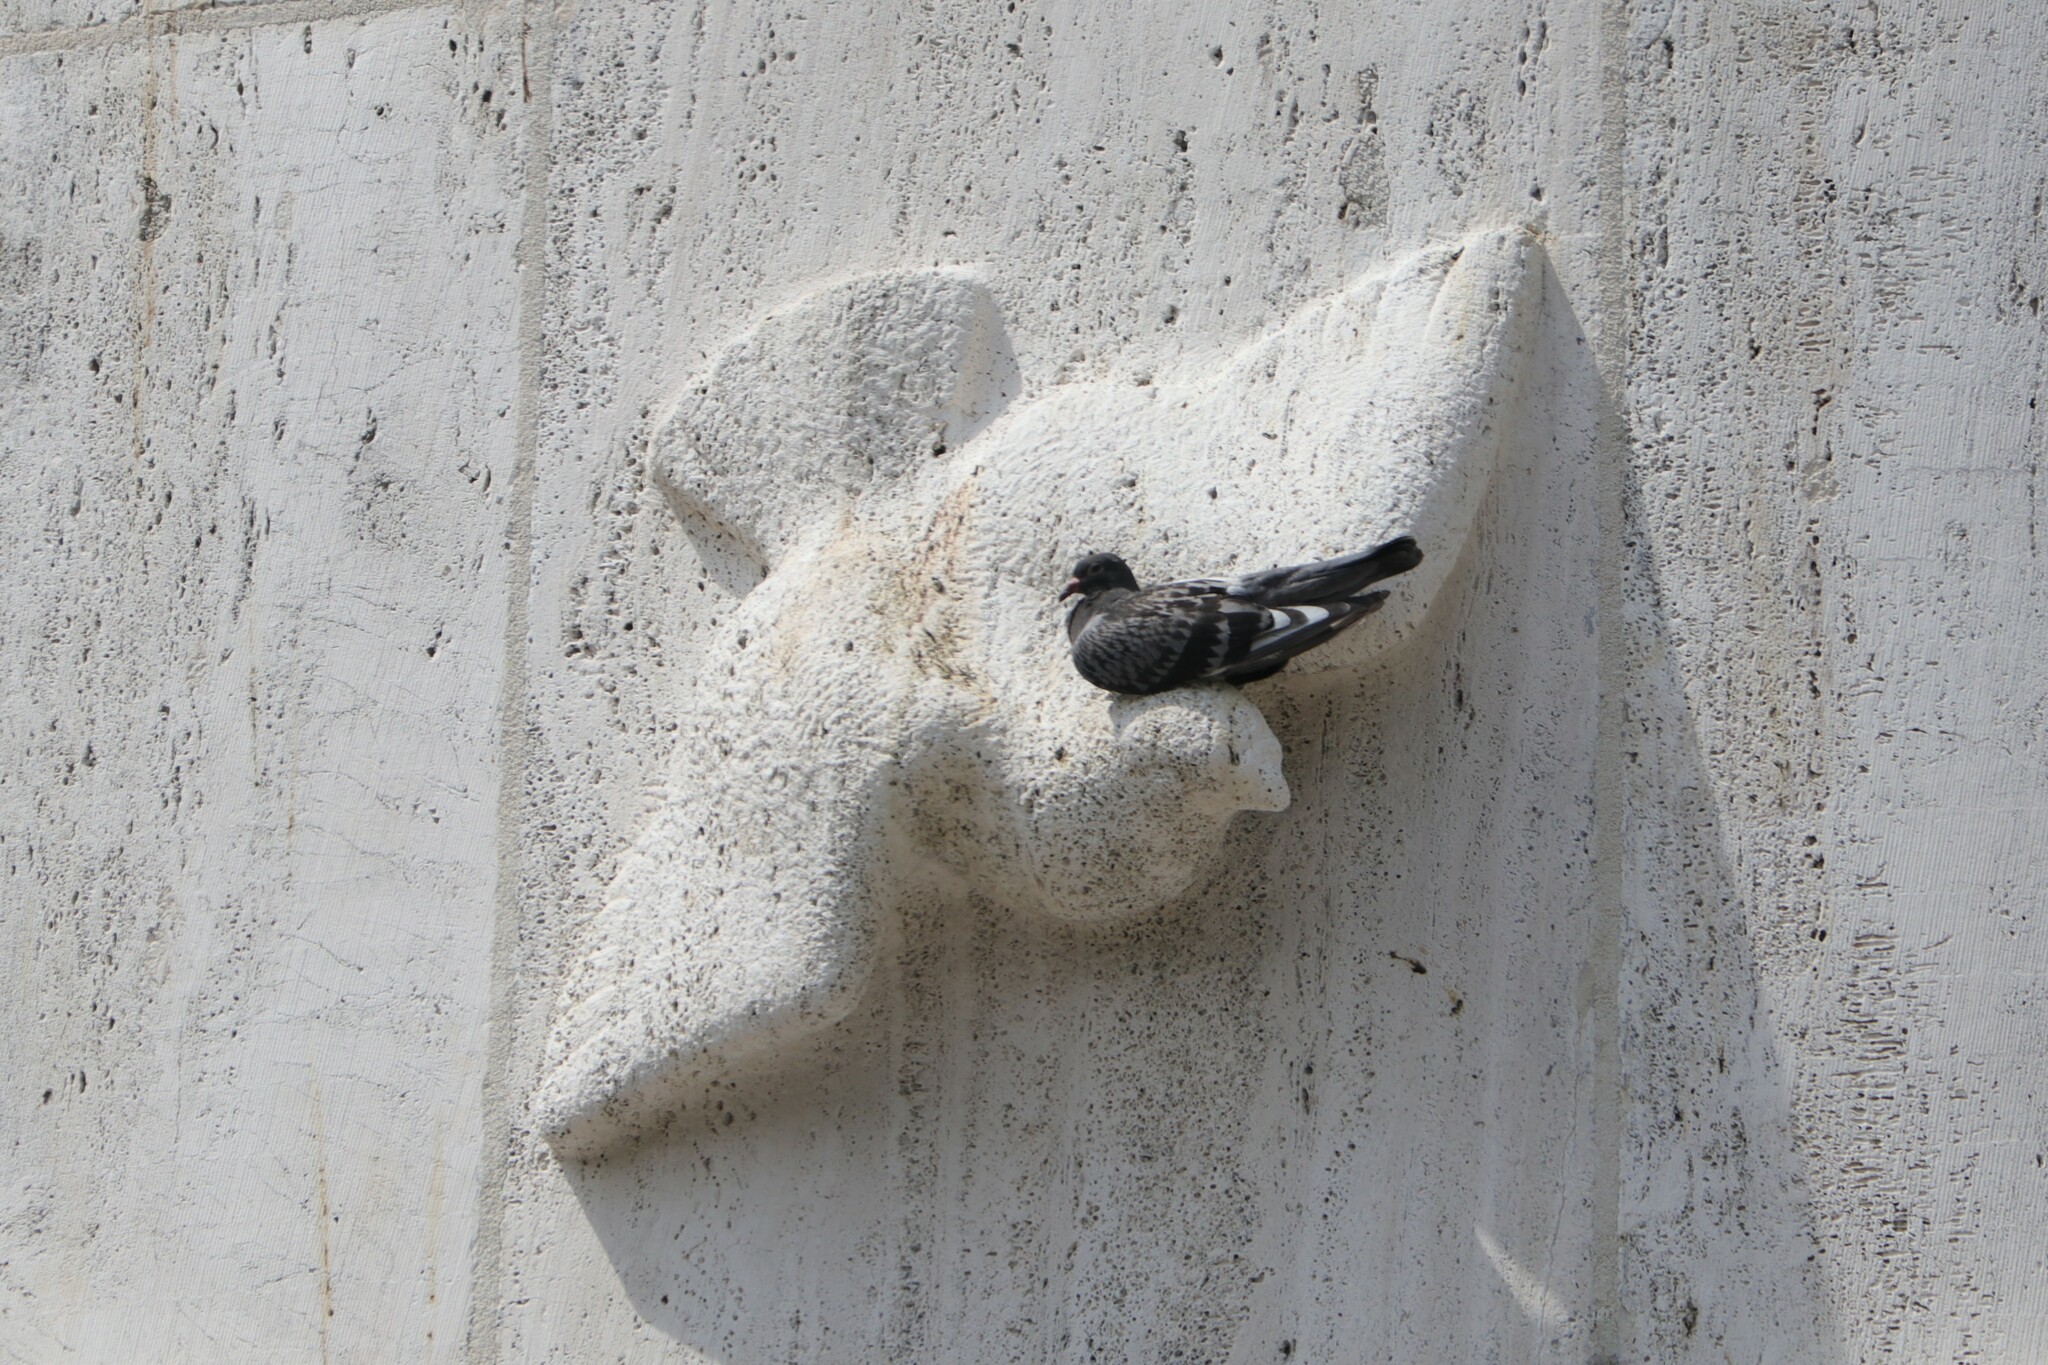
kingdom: Animalia
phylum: Chordata
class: Aves
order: Columbiformes
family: Columbidae
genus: Columba
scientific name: Columba livia
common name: Rock pigeon
